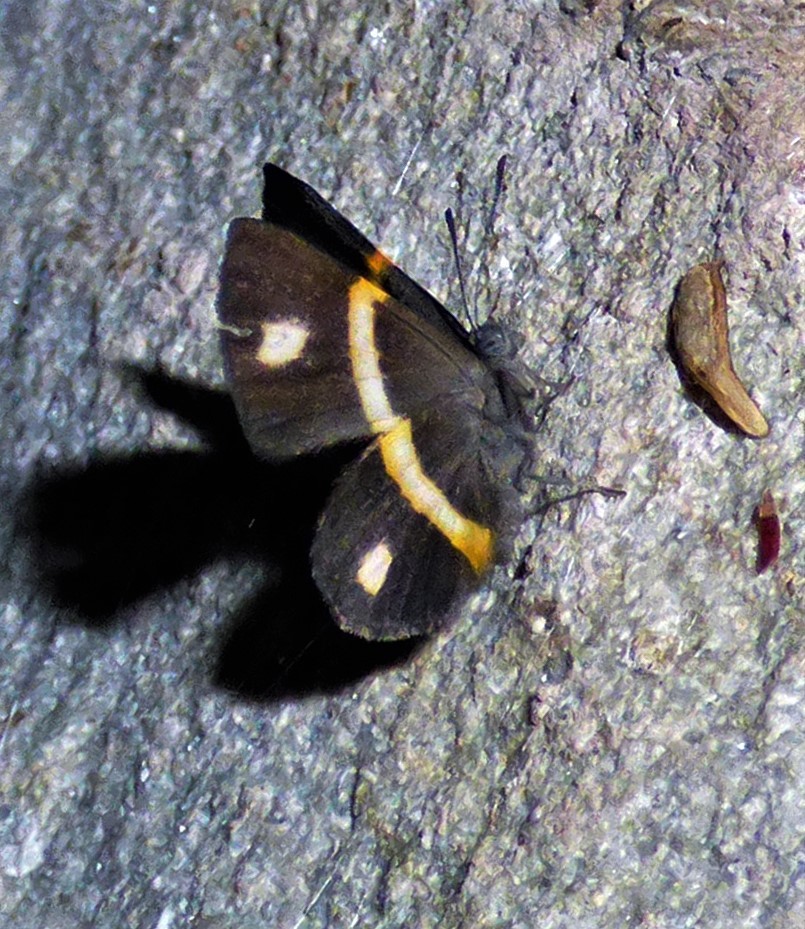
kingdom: Animalia
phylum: Arthropoda
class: Insecta
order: Lepidoptera
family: Riodinidae
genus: Parcella
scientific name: Parcella amarynthina
